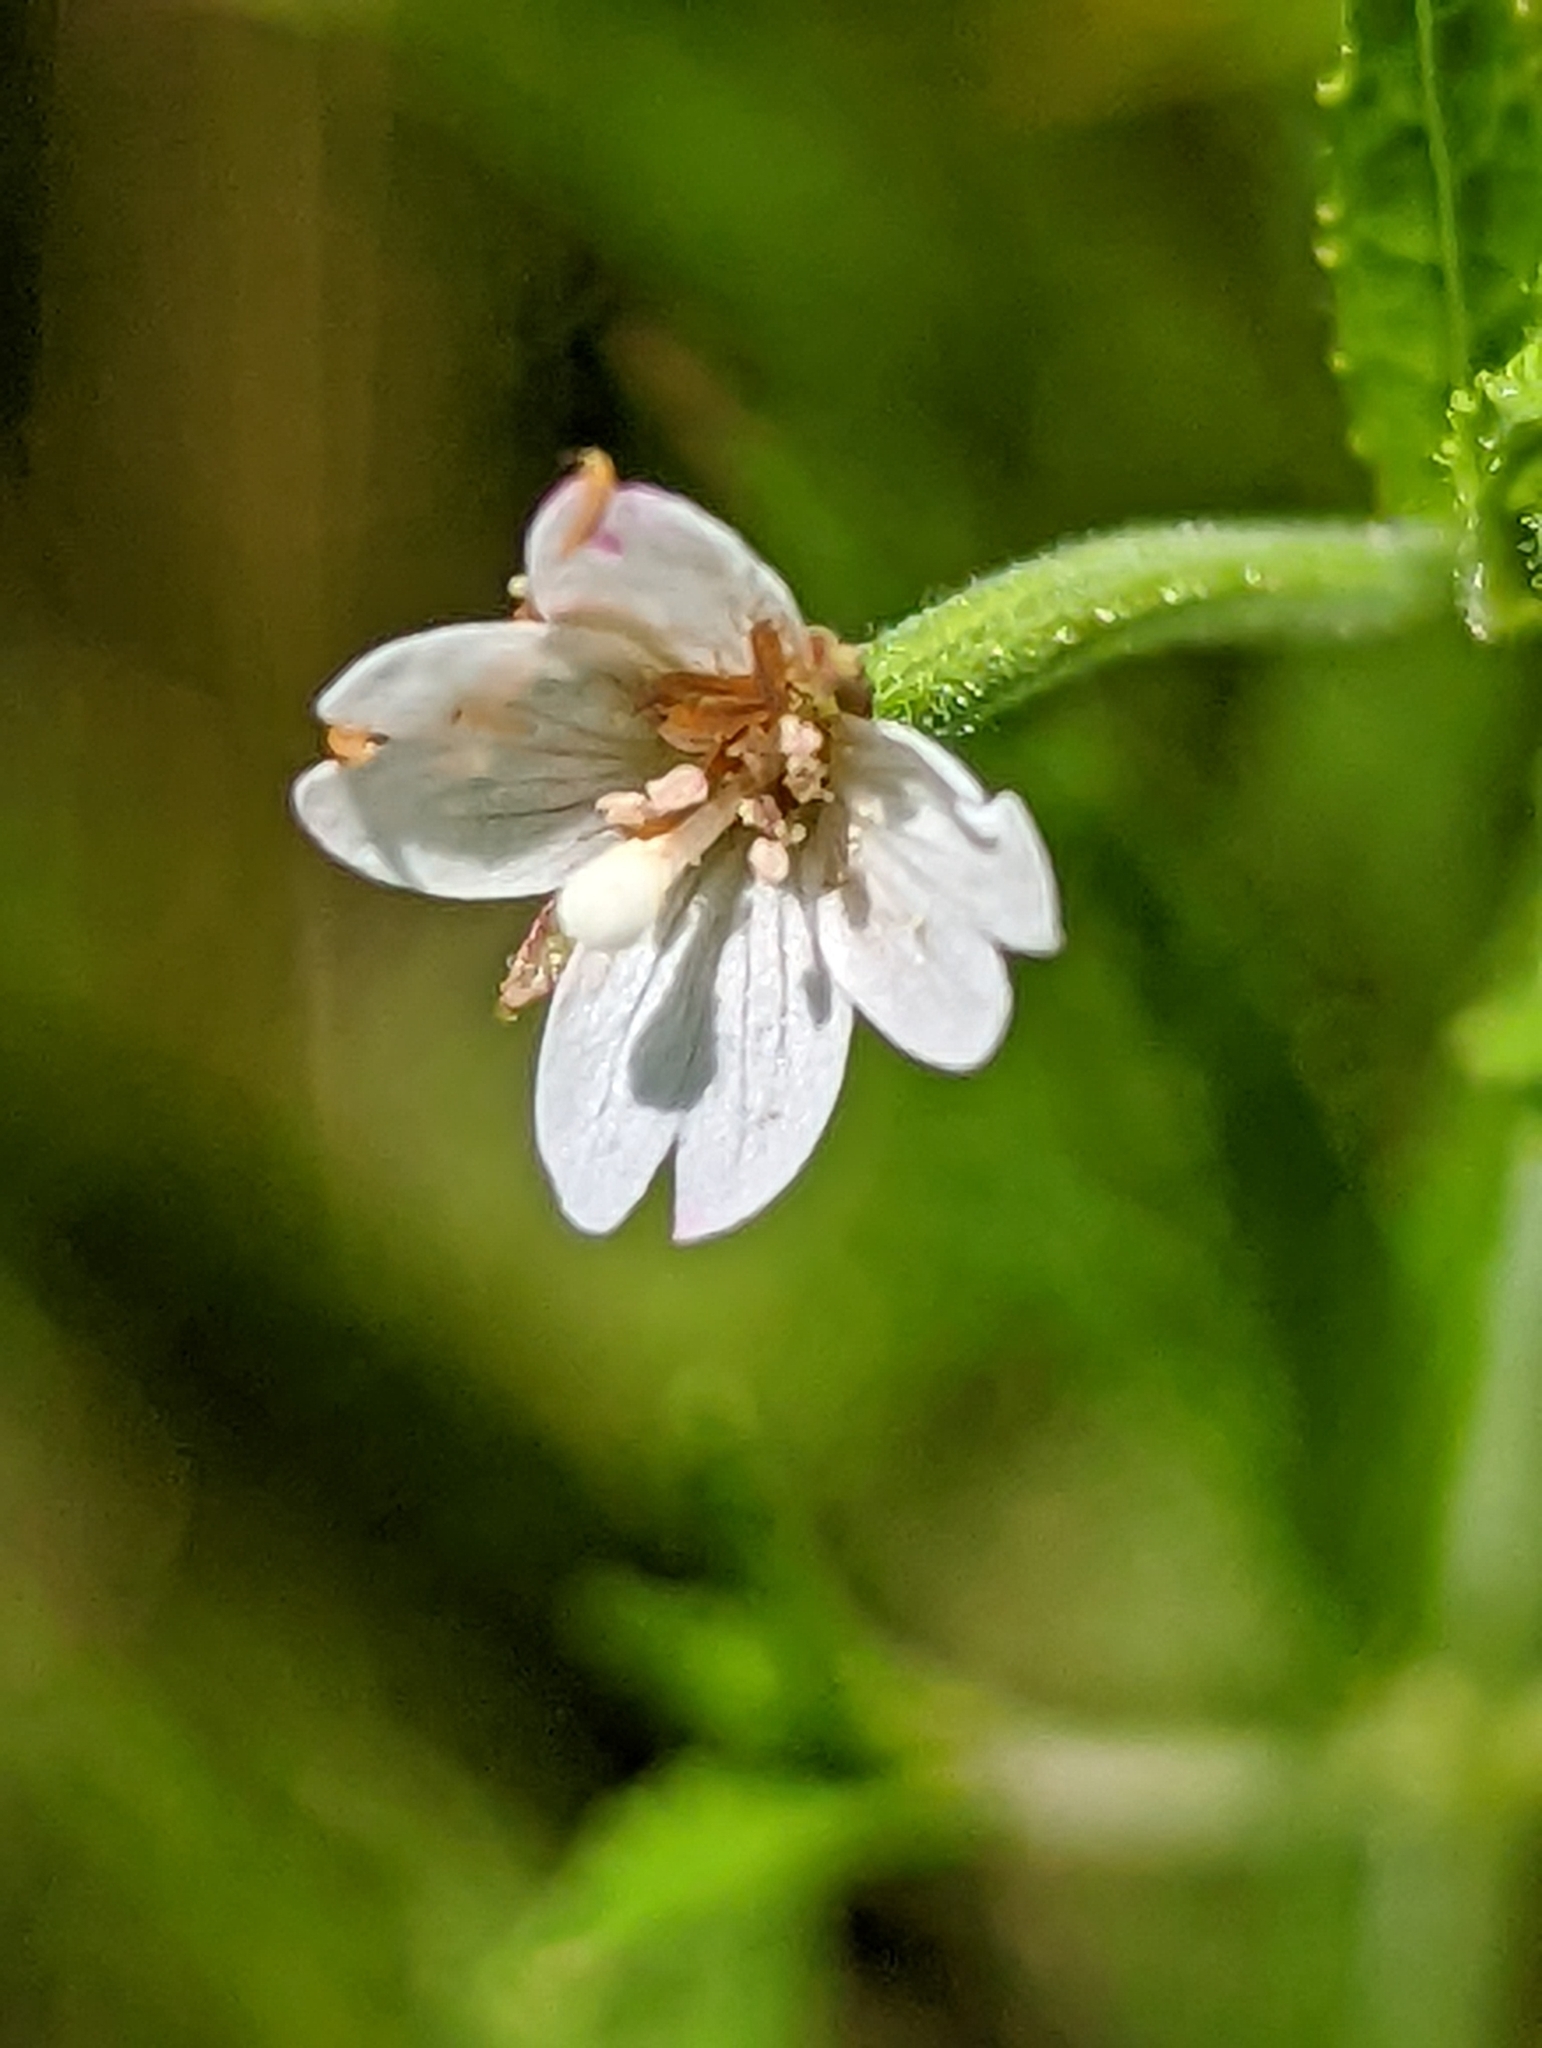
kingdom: Plantae
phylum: Tracheophyta
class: Magnoliopsida
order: Myrtales
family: Onagraceae
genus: Epilobium
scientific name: Epilobium coloratum
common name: Bronze willowherb
